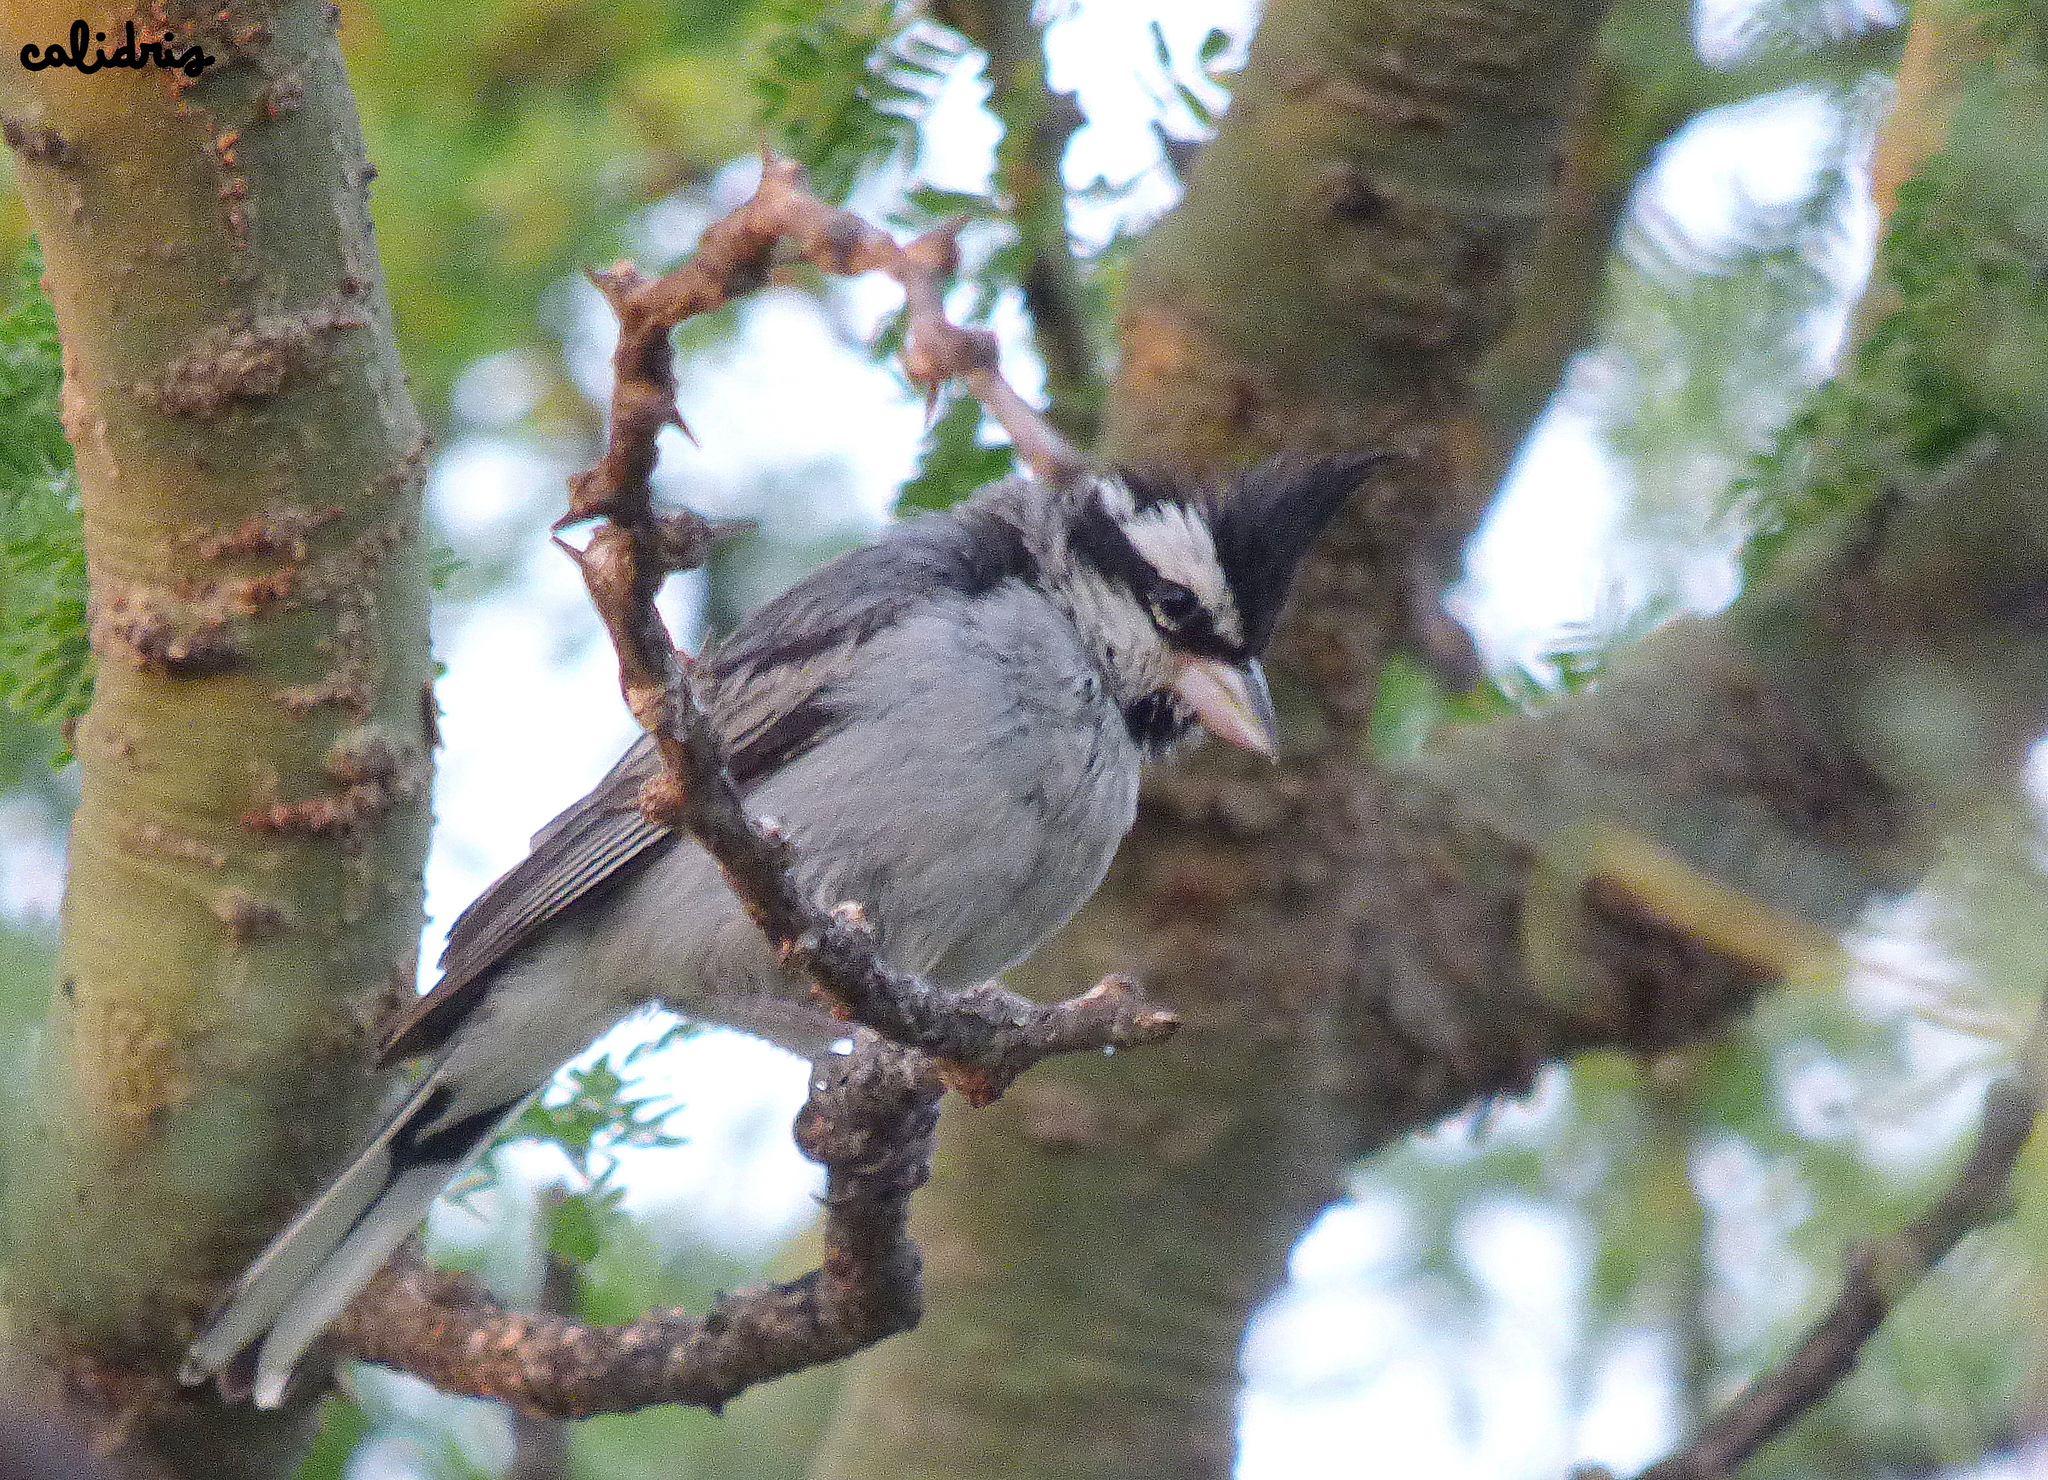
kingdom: Animalia
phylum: Chordata
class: Aves
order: Passeriformes
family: Thraupidae
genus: Lophospingus
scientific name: Lophospingus pusillus
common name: Black-crested finch
